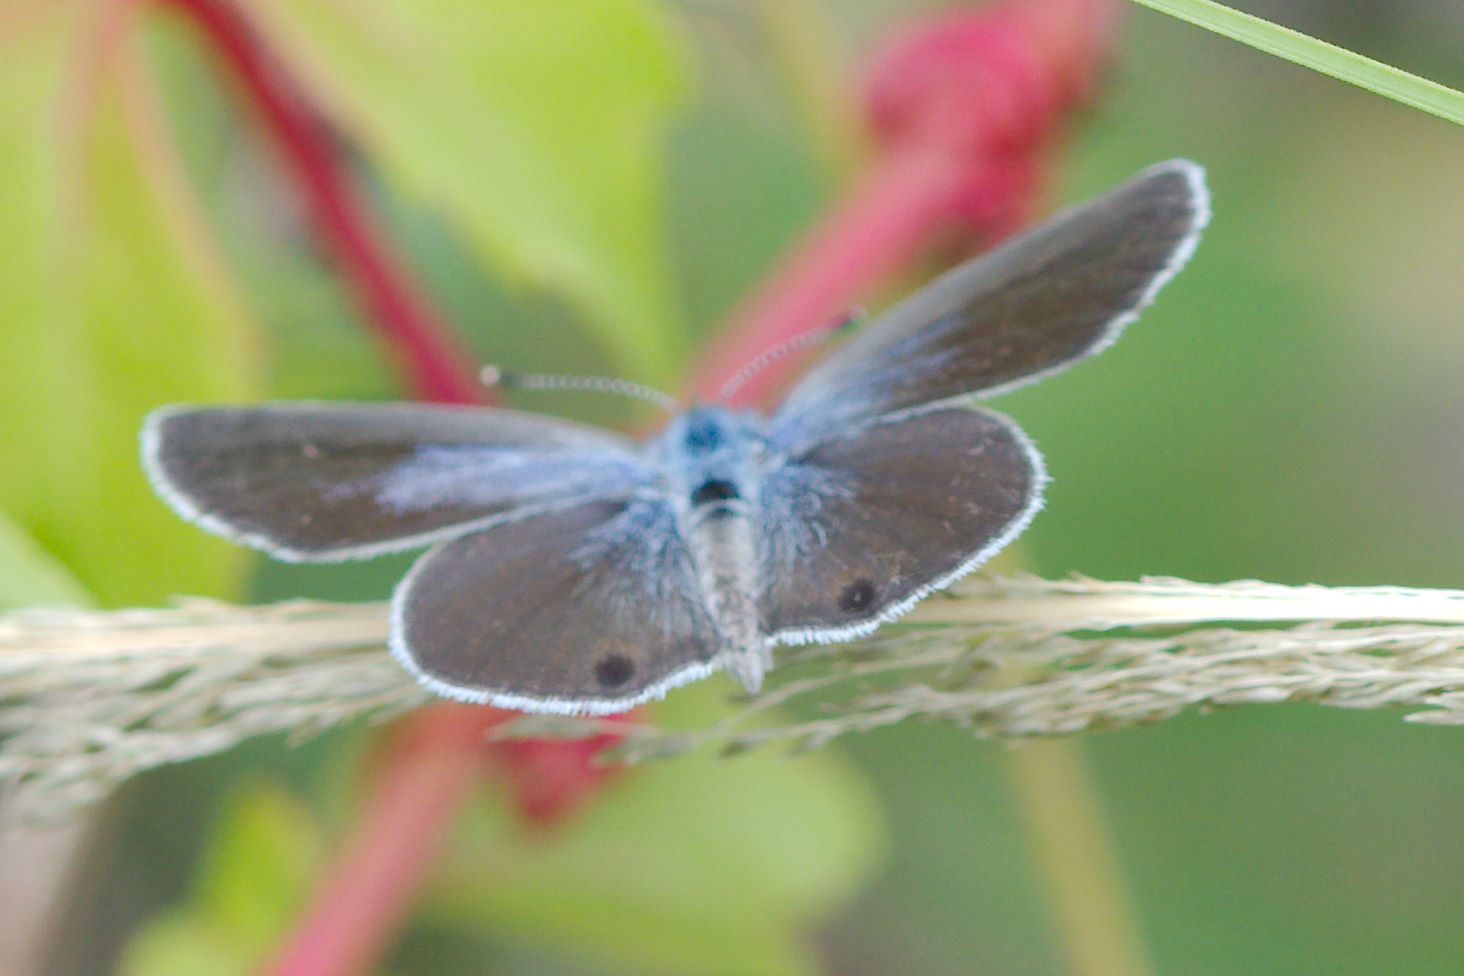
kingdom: Animalia
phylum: Arthropoda
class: Insecta
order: Lepidoptera
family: Lycaenidae
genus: Hemiargus
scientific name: Hemiargus ceraunus
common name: Ceraunus blue
